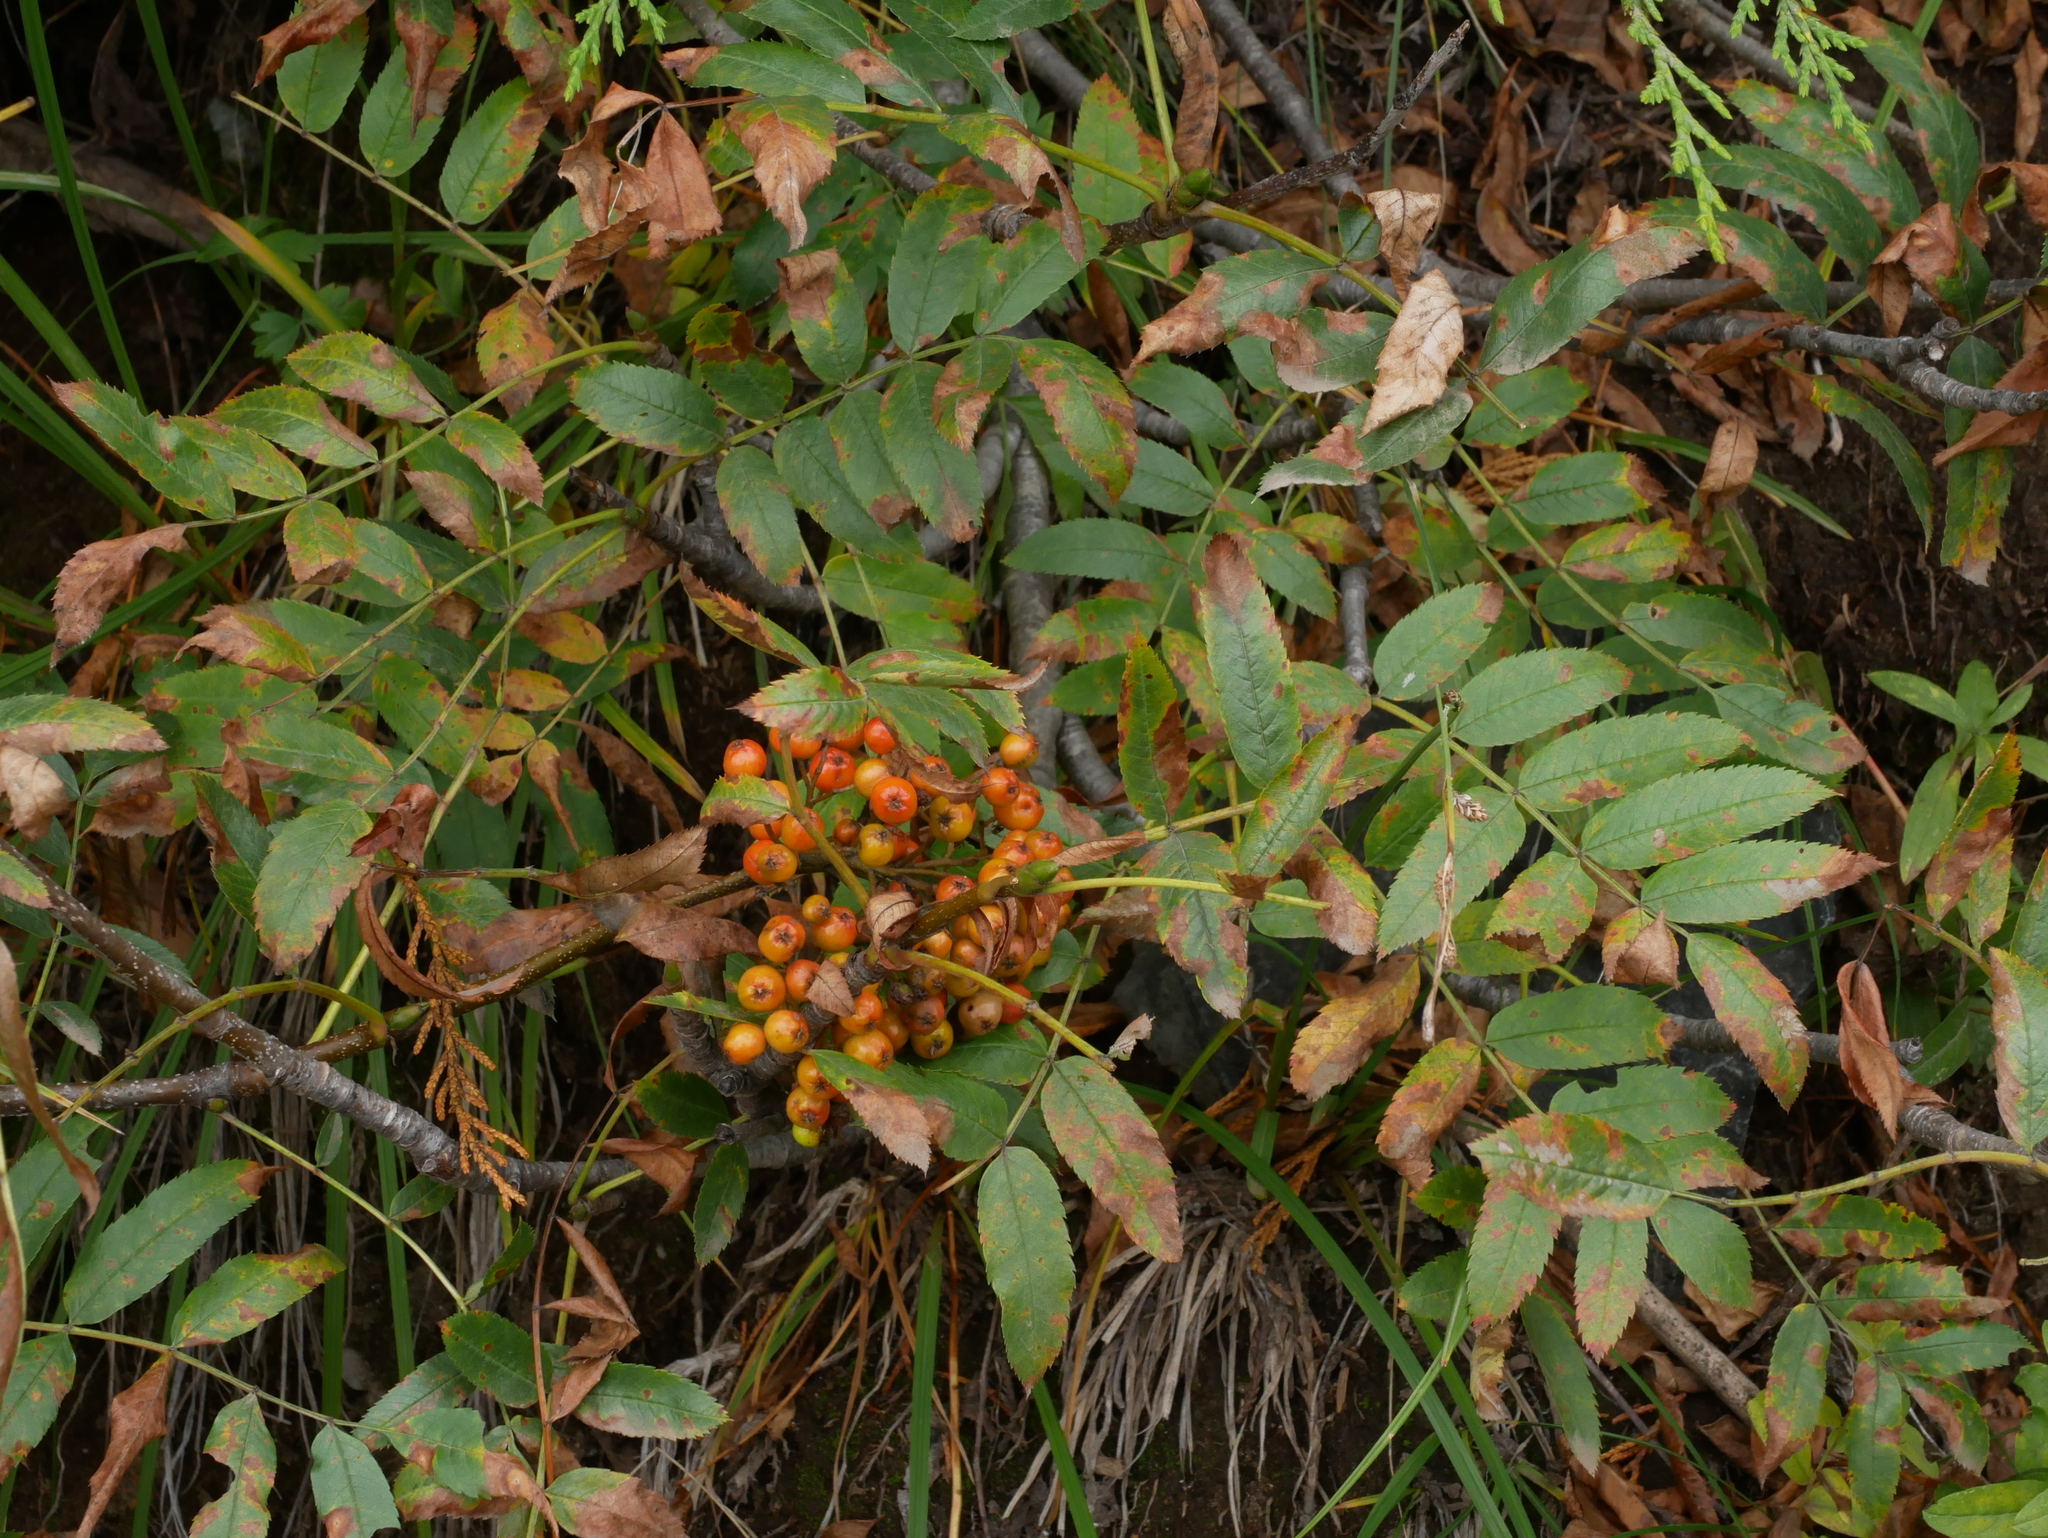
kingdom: Plantae
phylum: Tracheophyta
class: Magnoliopsida
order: Rosales
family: Rosaceae
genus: Sorbus
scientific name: Sorbus scopulina
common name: Greene's mountain-ash
